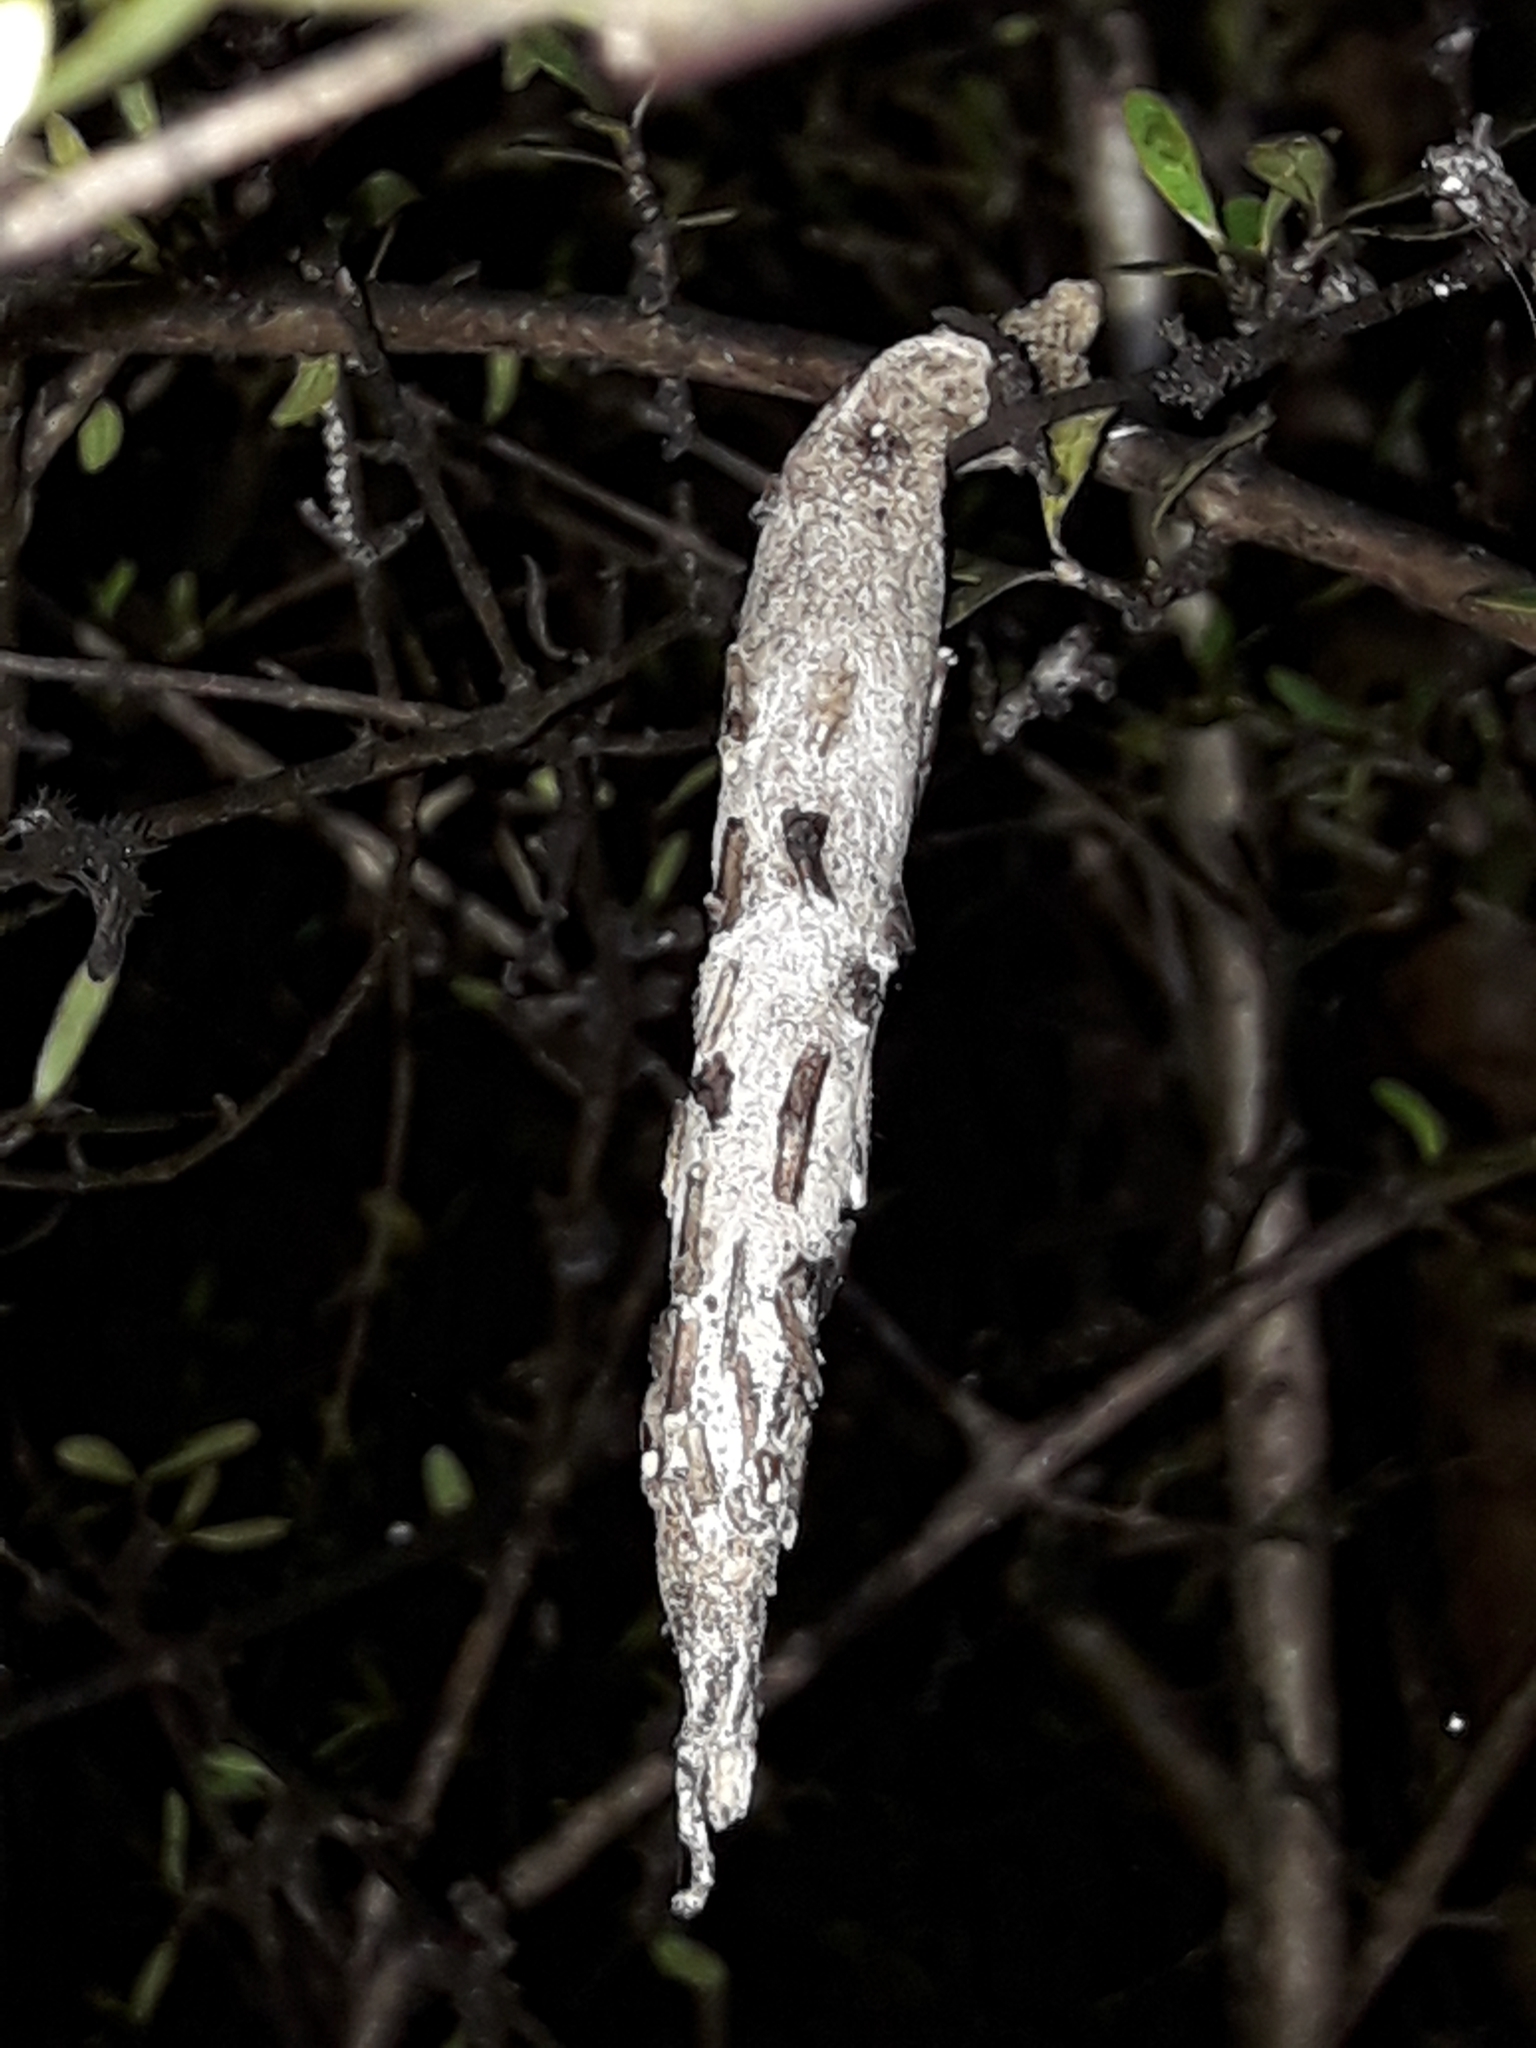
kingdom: Animalia
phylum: Arthropoda
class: Insecta
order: Lepidoptera
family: Psychidae
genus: Liothula
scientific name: Liothula omnivora
